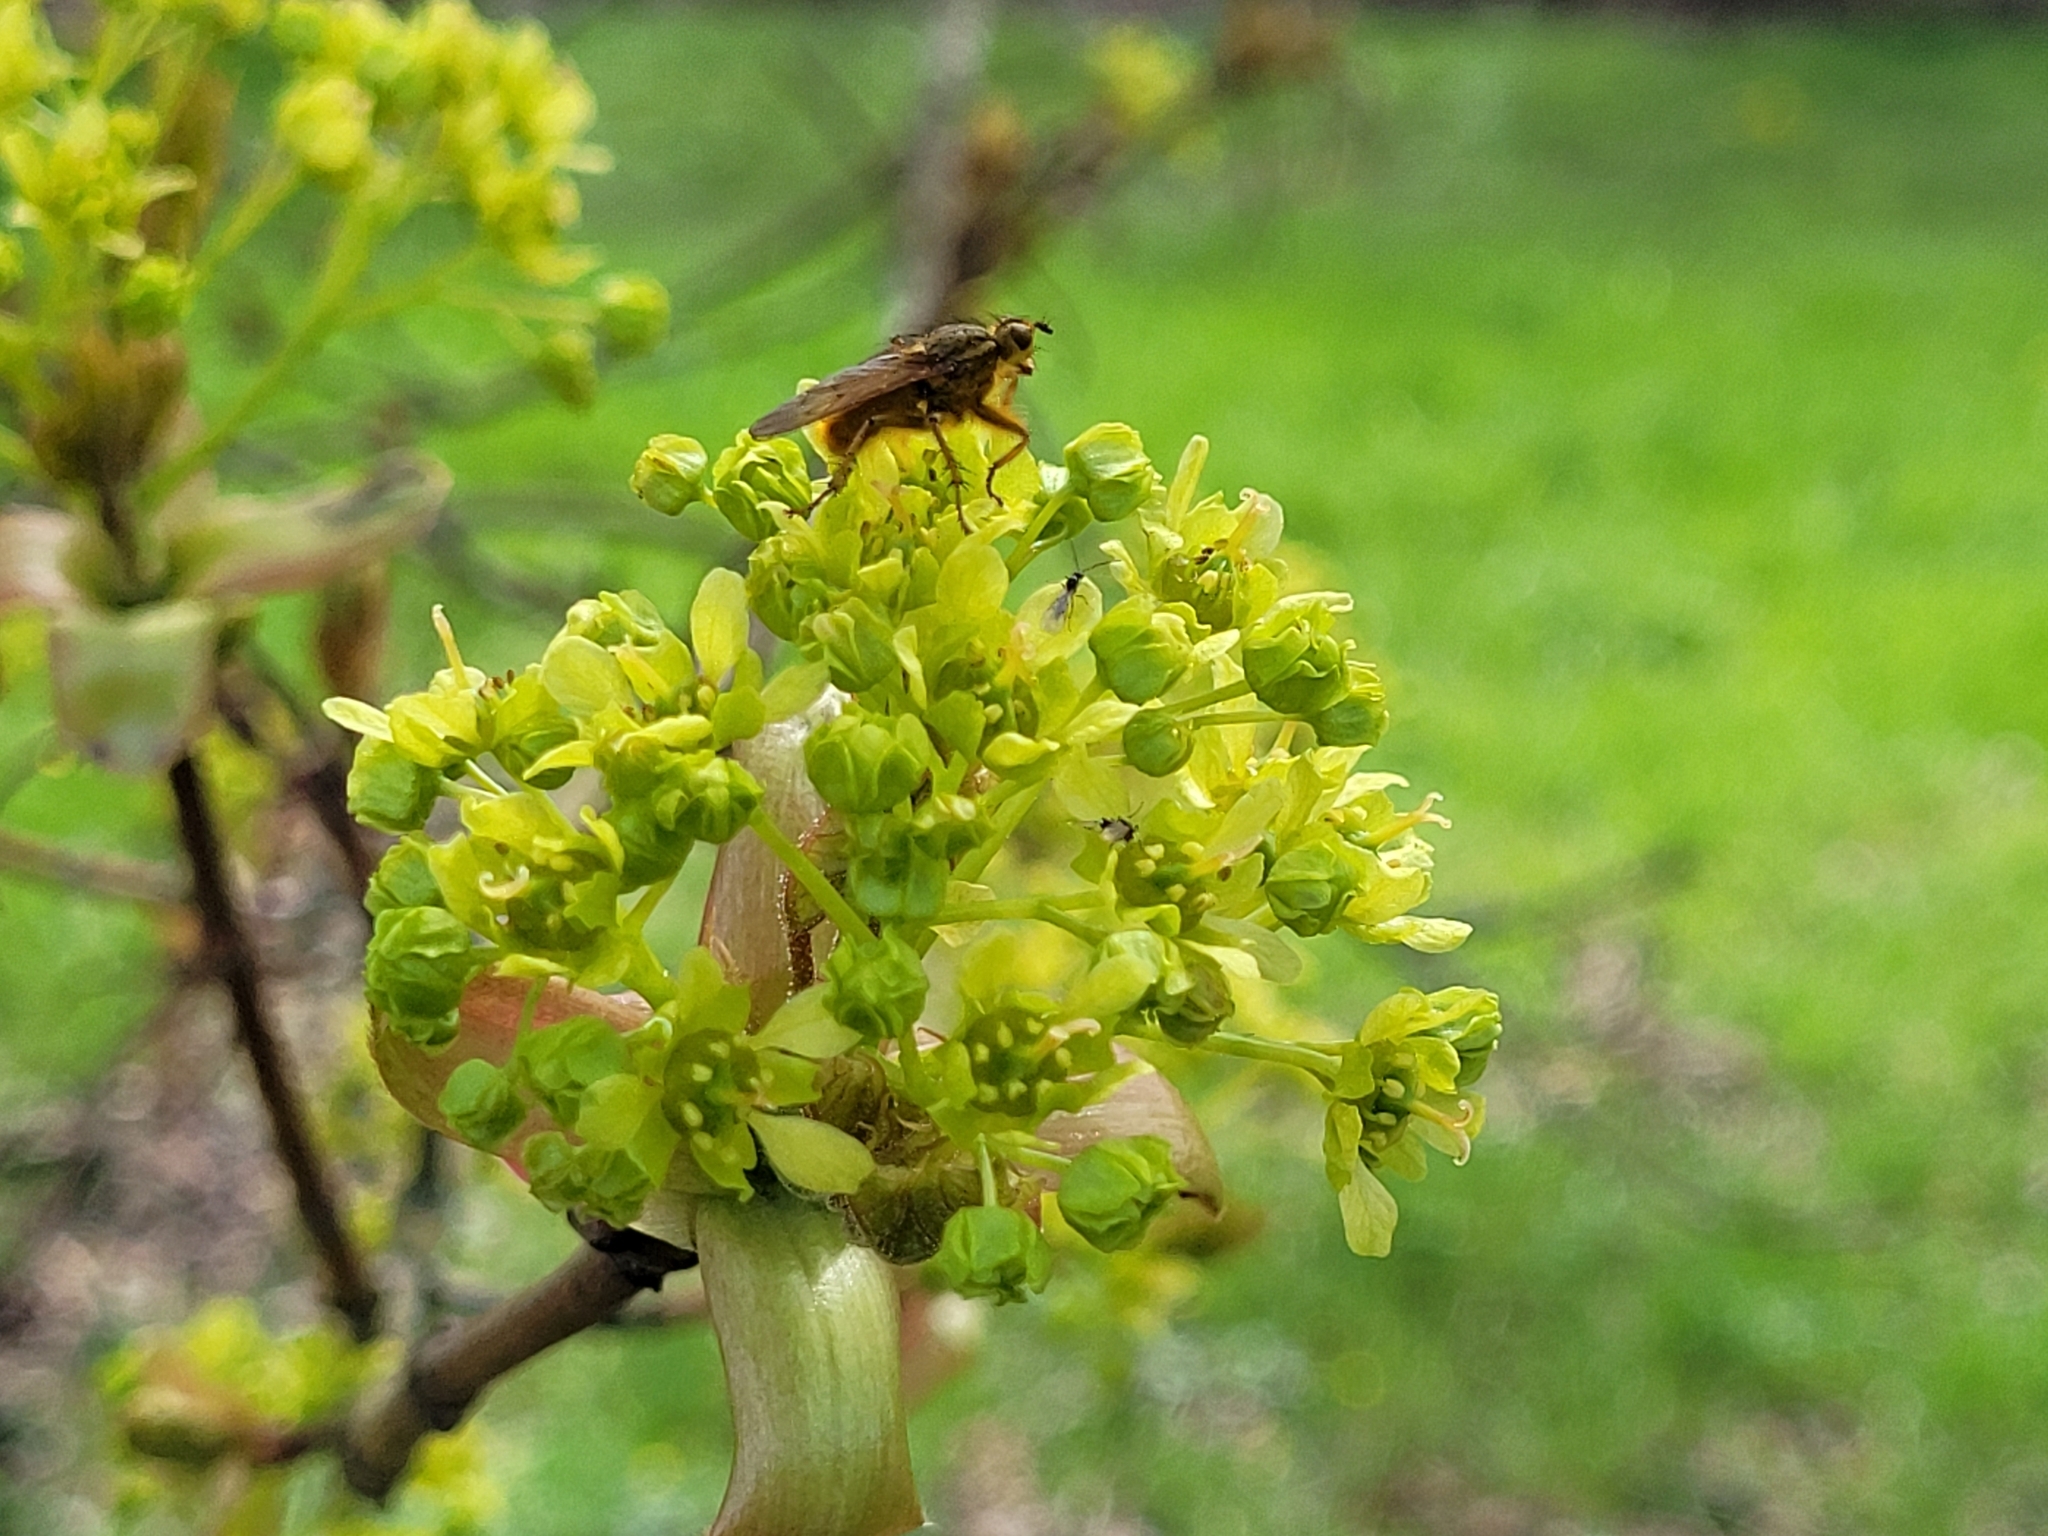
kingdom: Animalia
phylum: Arthropoda
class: Insecta
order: Diptera
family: Scathophagidae
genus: Scathophaga
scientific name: Scathophaga stercoraria
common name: Yellow dung fly
